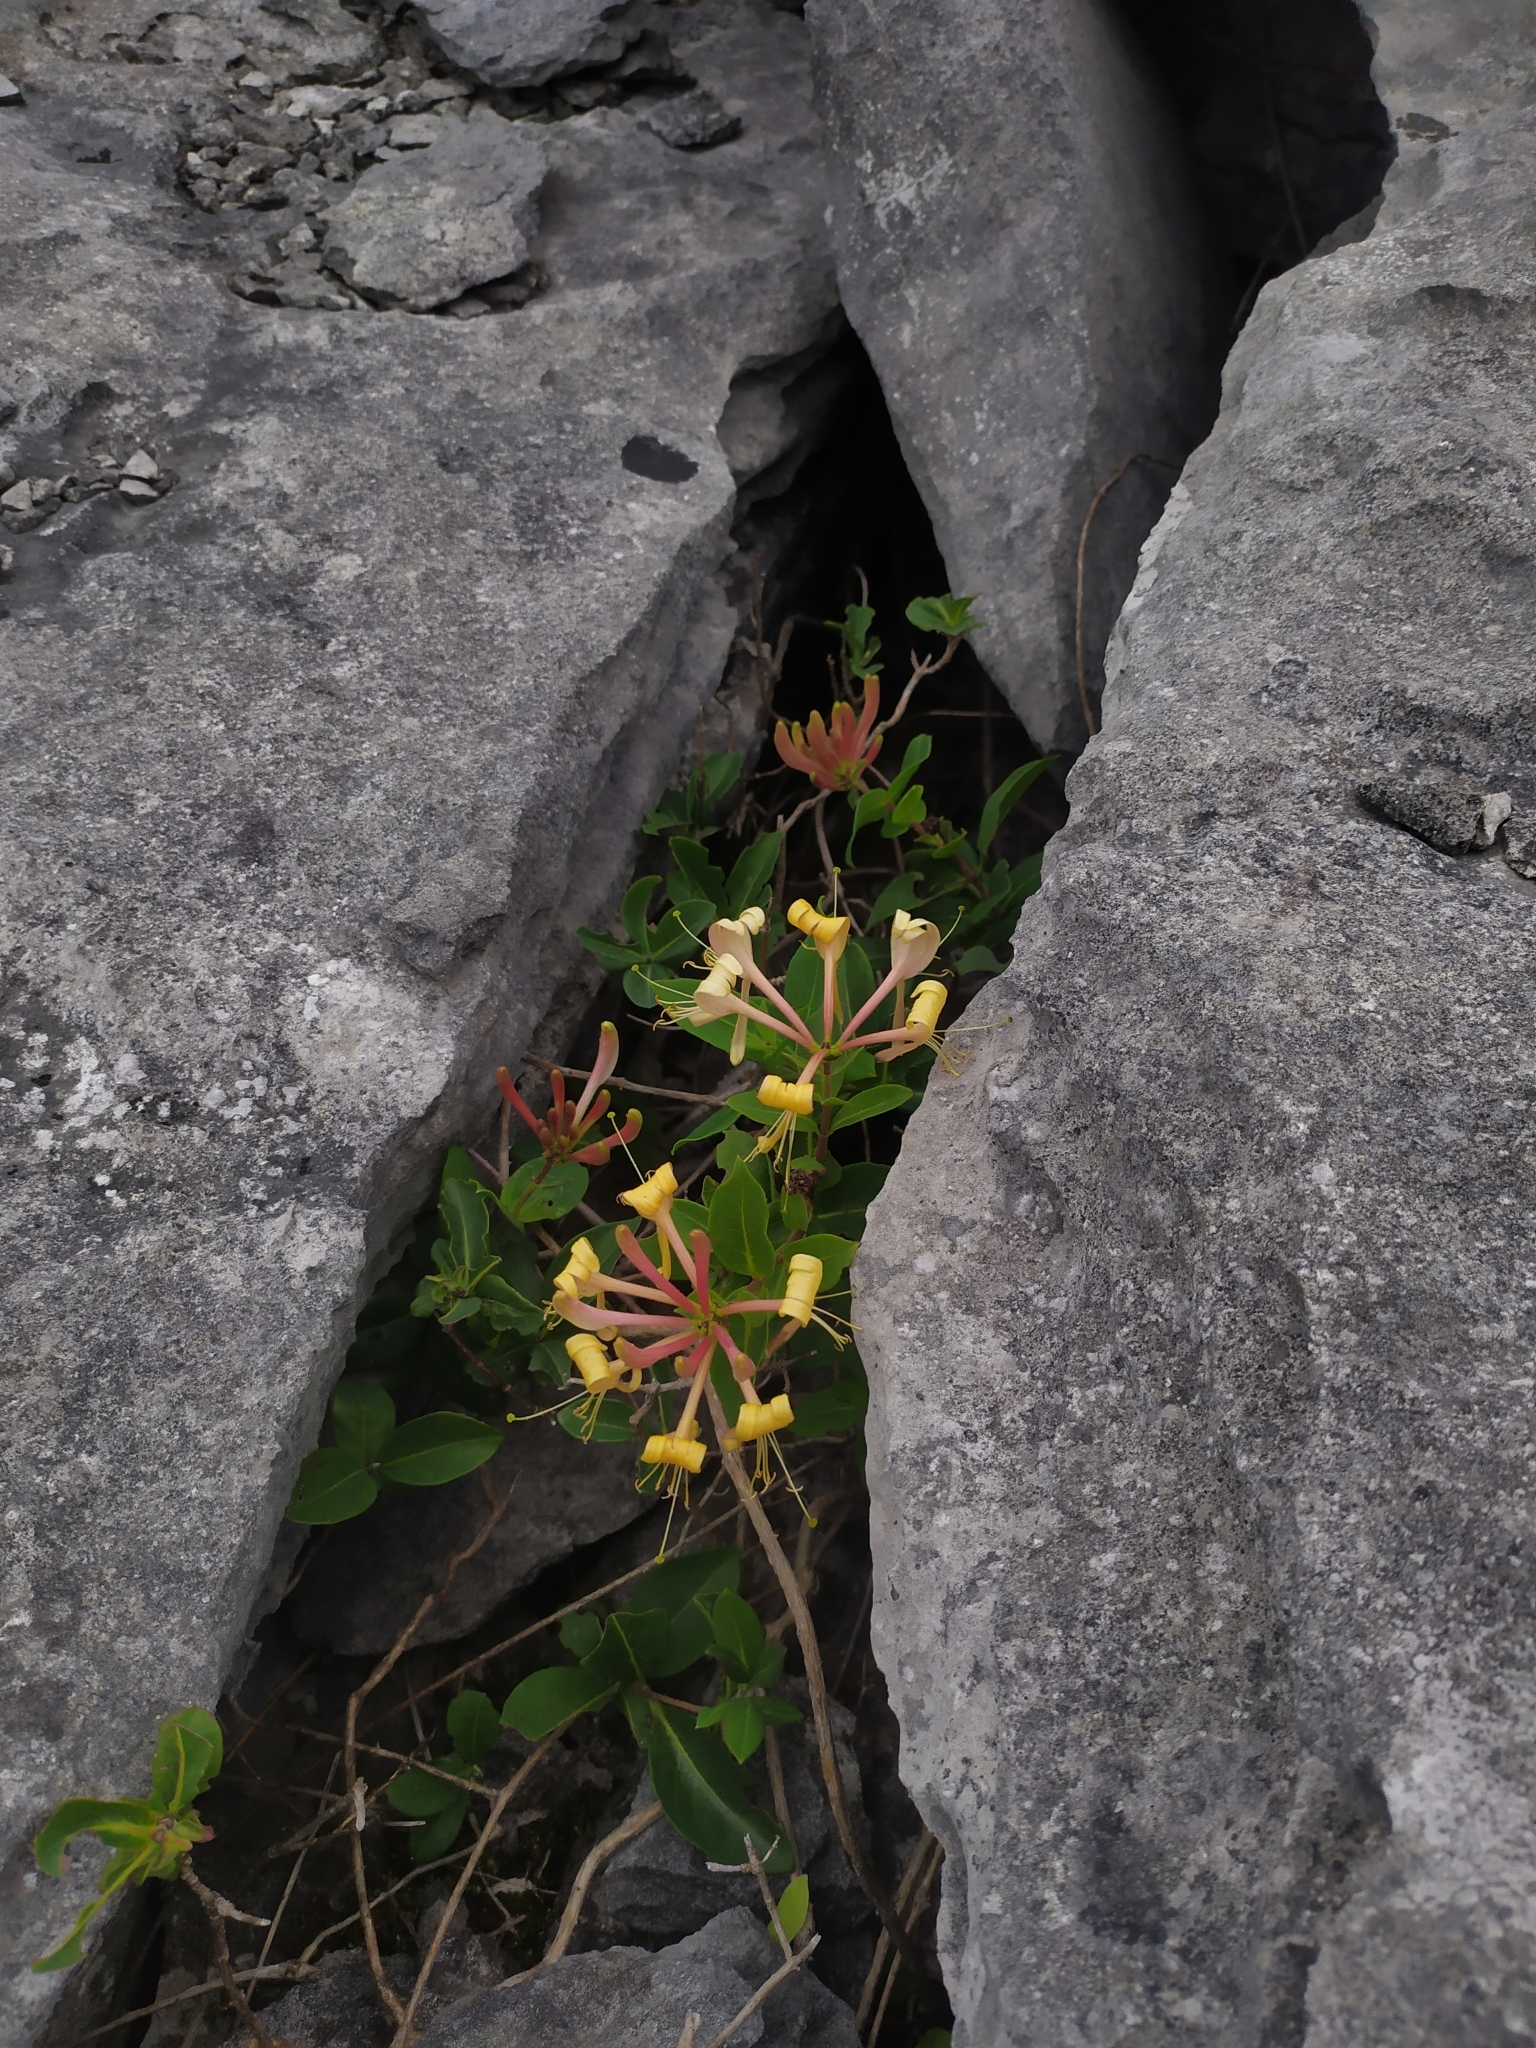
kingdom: Plantae
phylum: Tracheophyta
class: Magnoliopsida
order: Dipsacales
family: Caprifoliaceae
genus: Lonicera
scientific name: Lonicera periclymenum
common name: European honeysuckle
